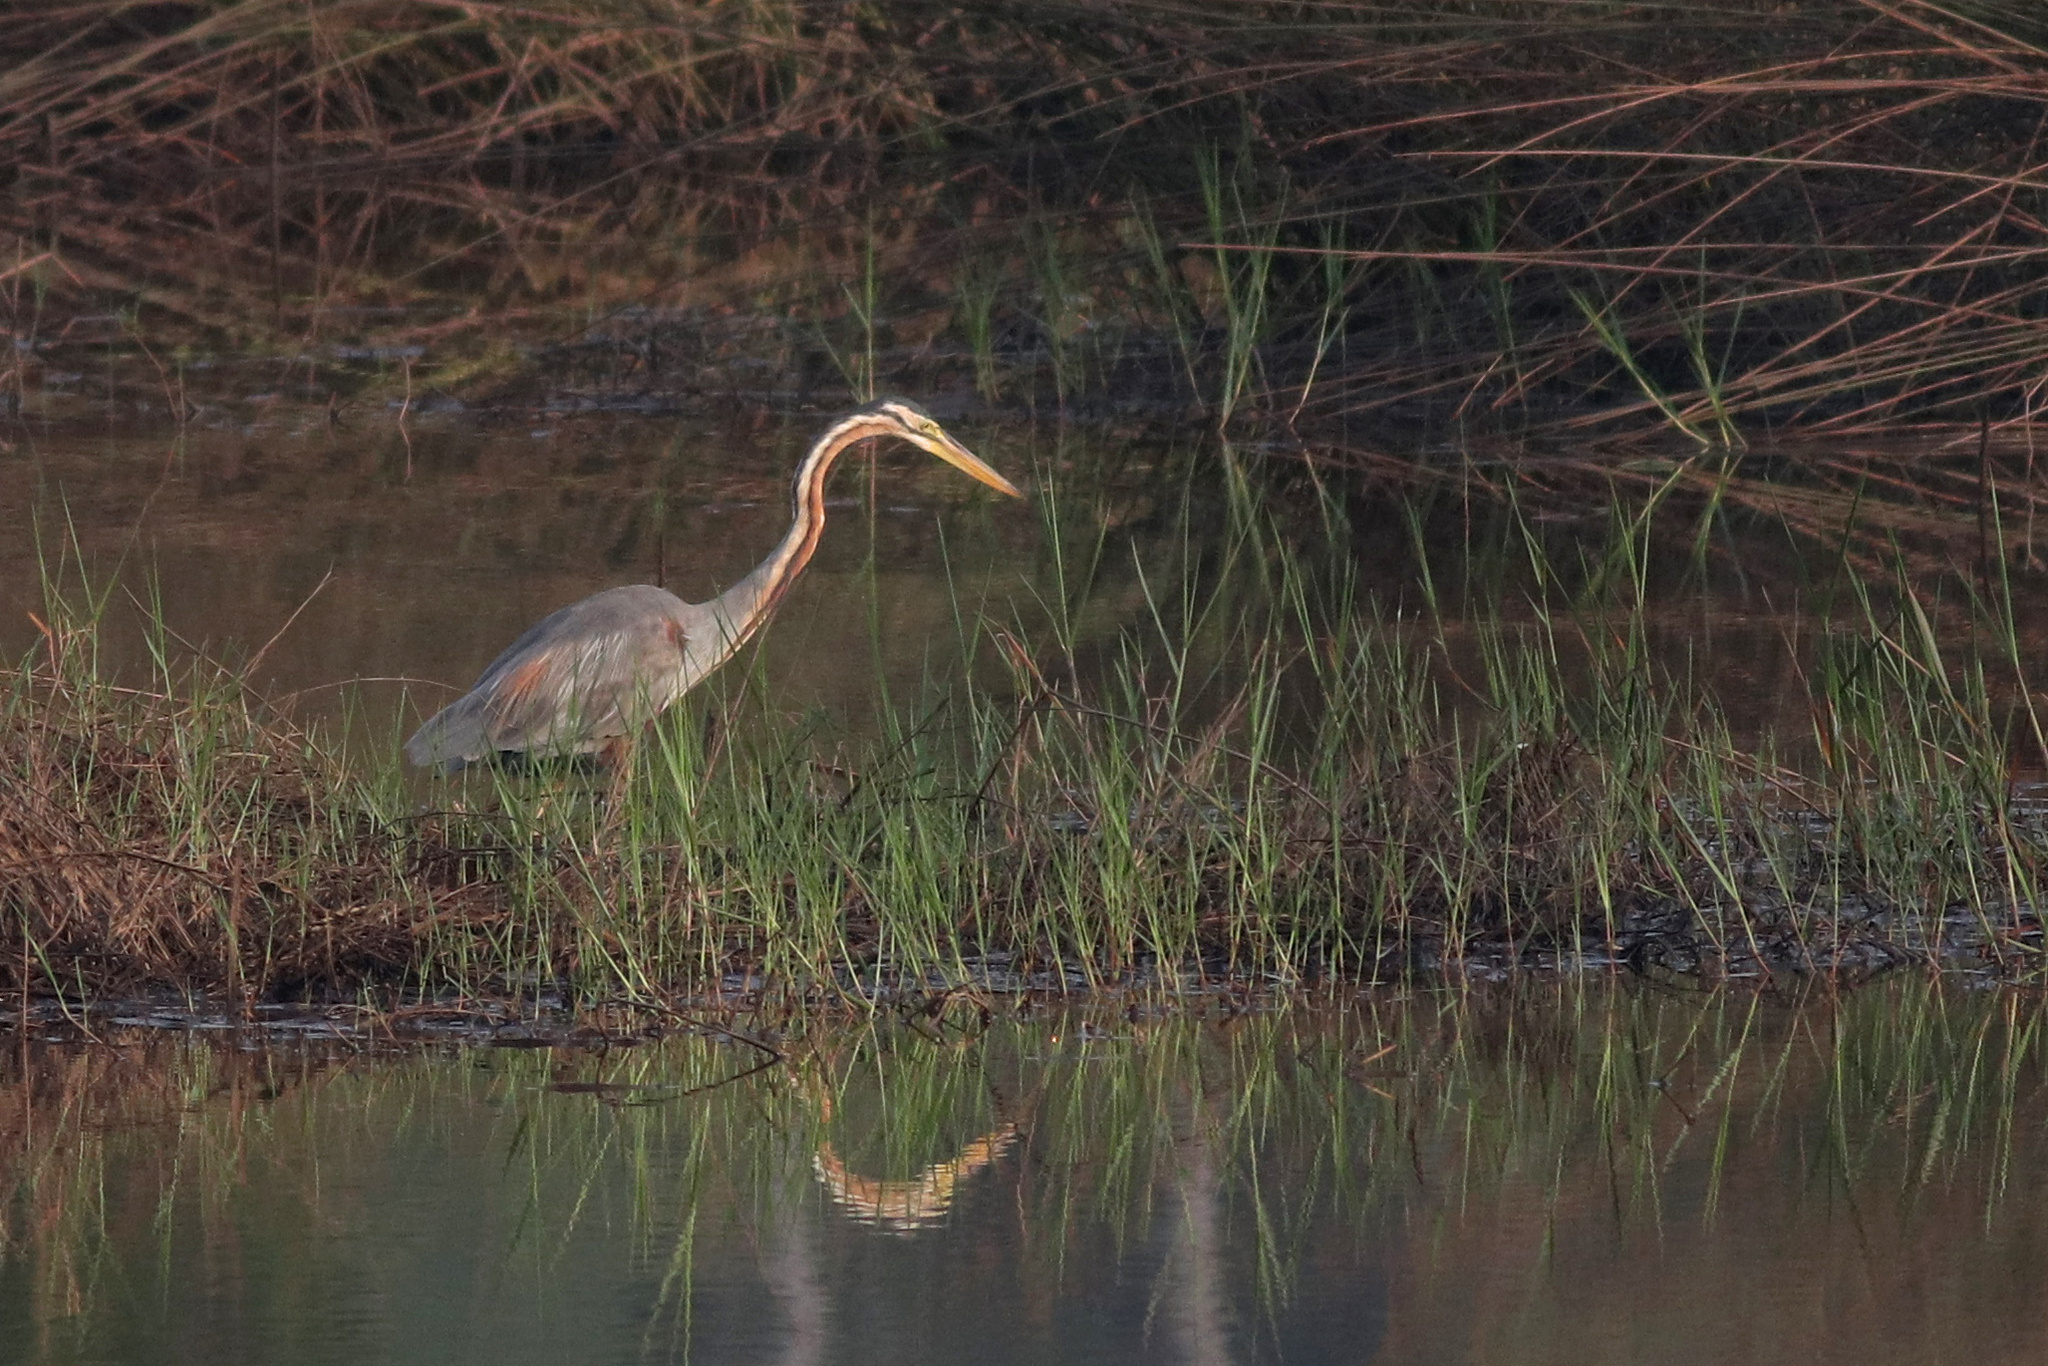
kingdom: Animalia
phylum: Chordata
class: Aves
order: Pelecaniformes
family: Ardeidae
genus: Ardea
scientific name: Ardea purpurea
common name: Purple heron
